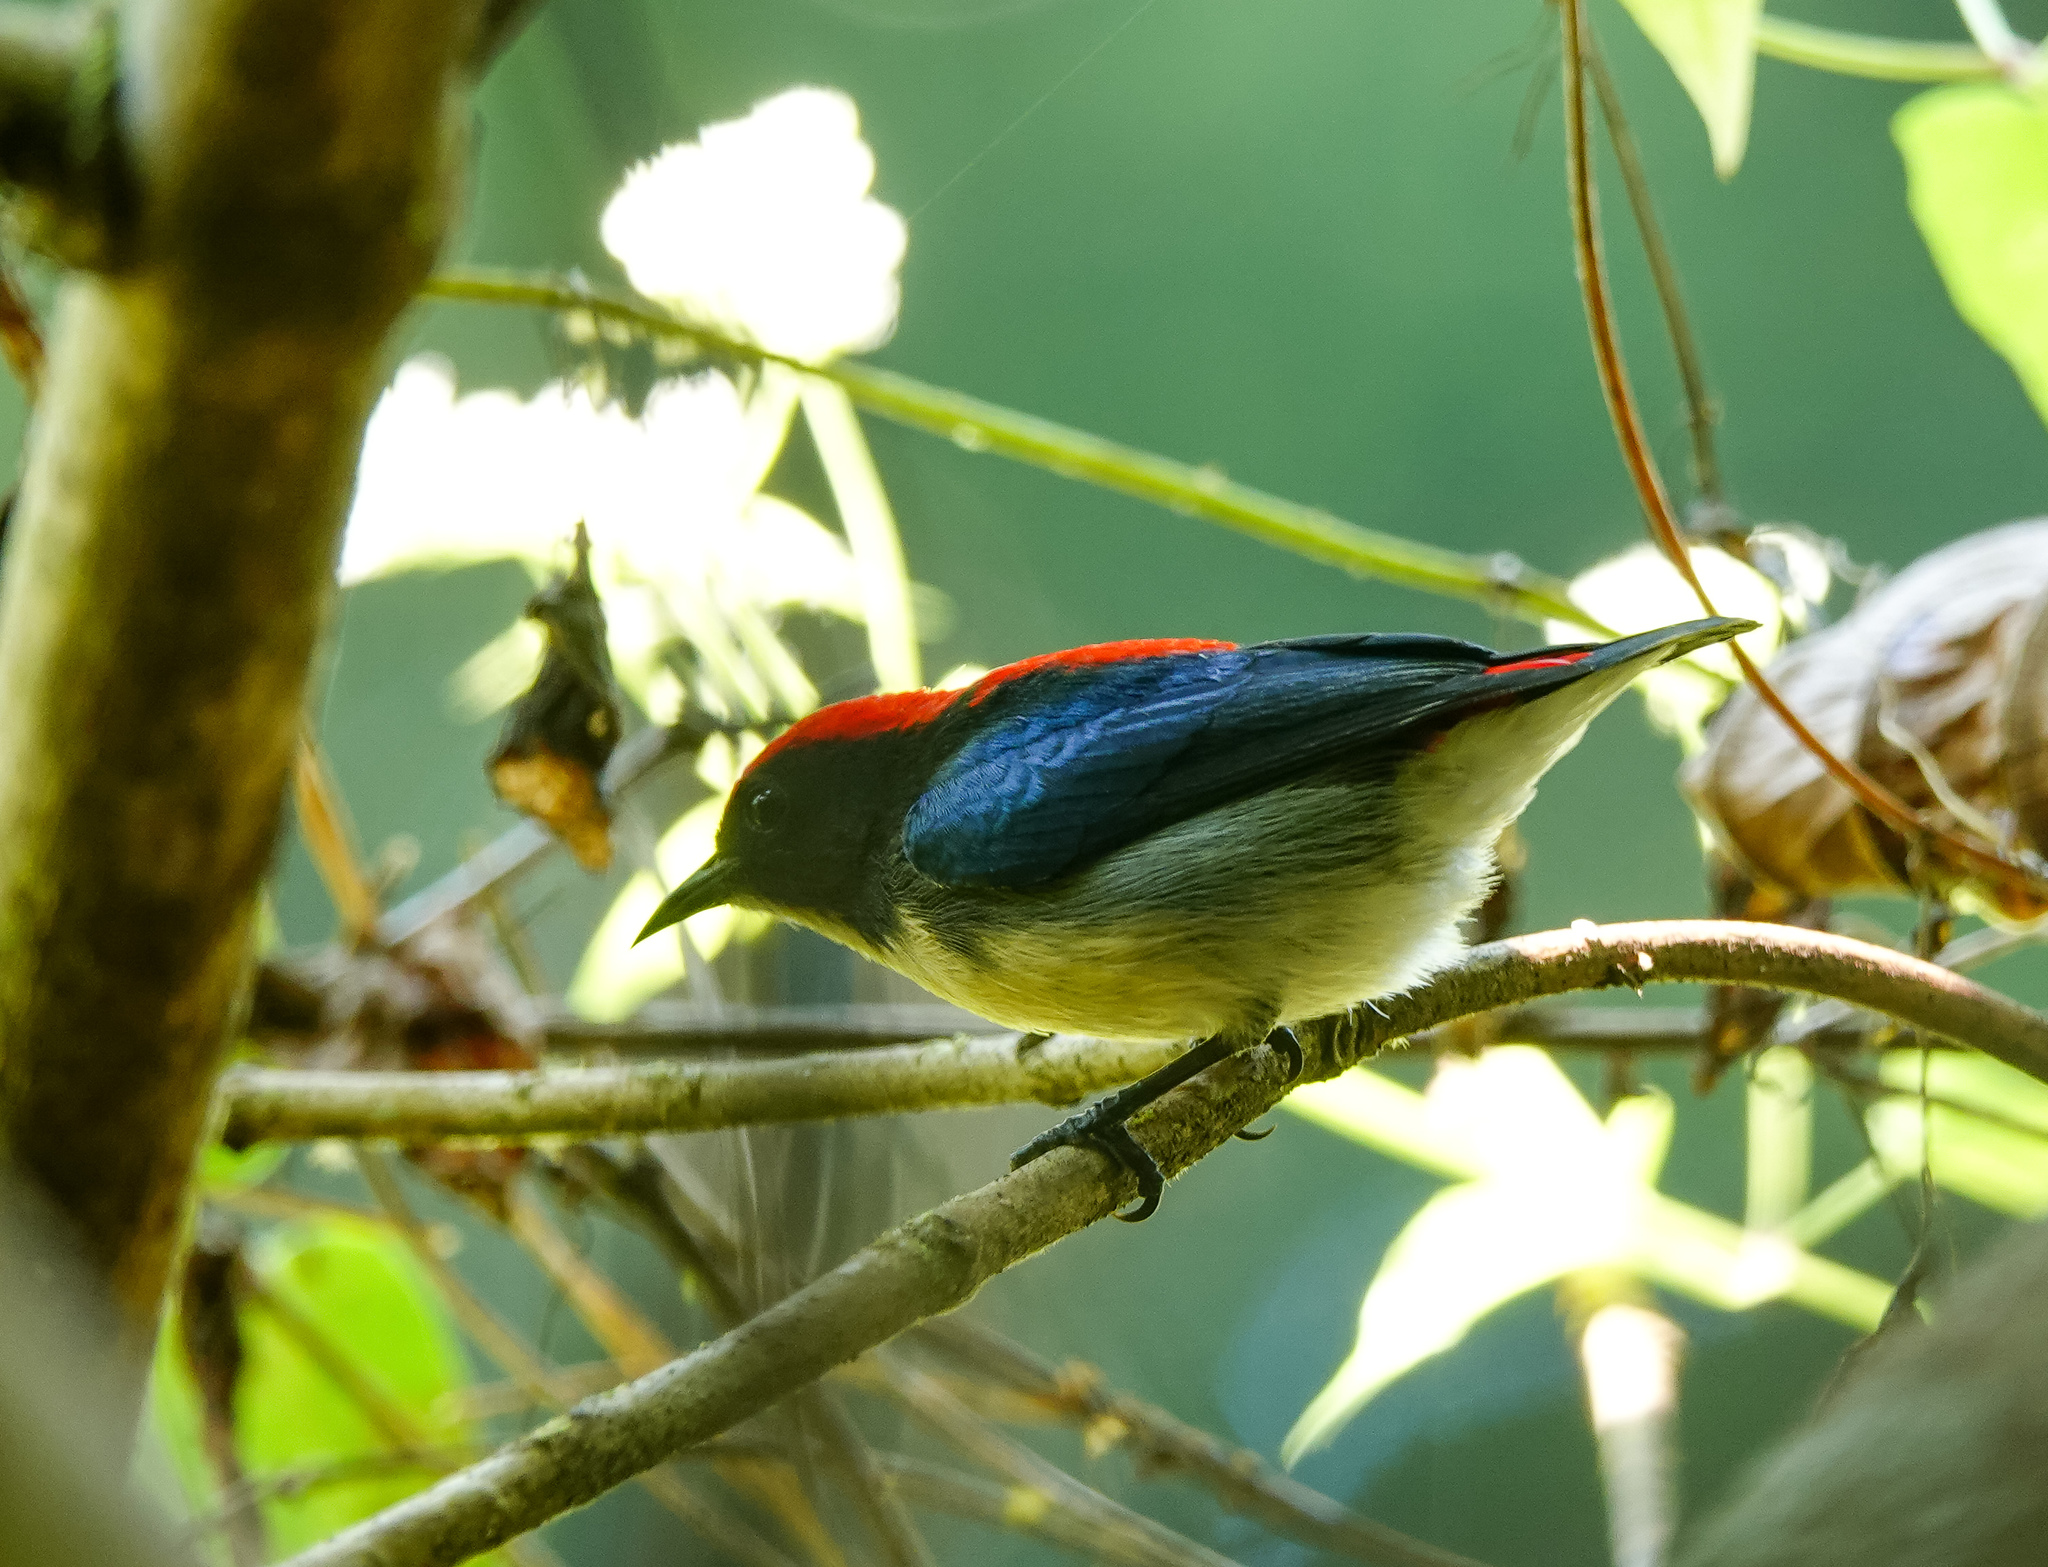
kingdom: Animalia
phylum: Chordata
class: Aves
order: Passeriformes
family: Dicaeidae
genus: Dicaeum
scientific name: Dicaeum cruentatum
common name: Scarlet-backed flowerpecker
